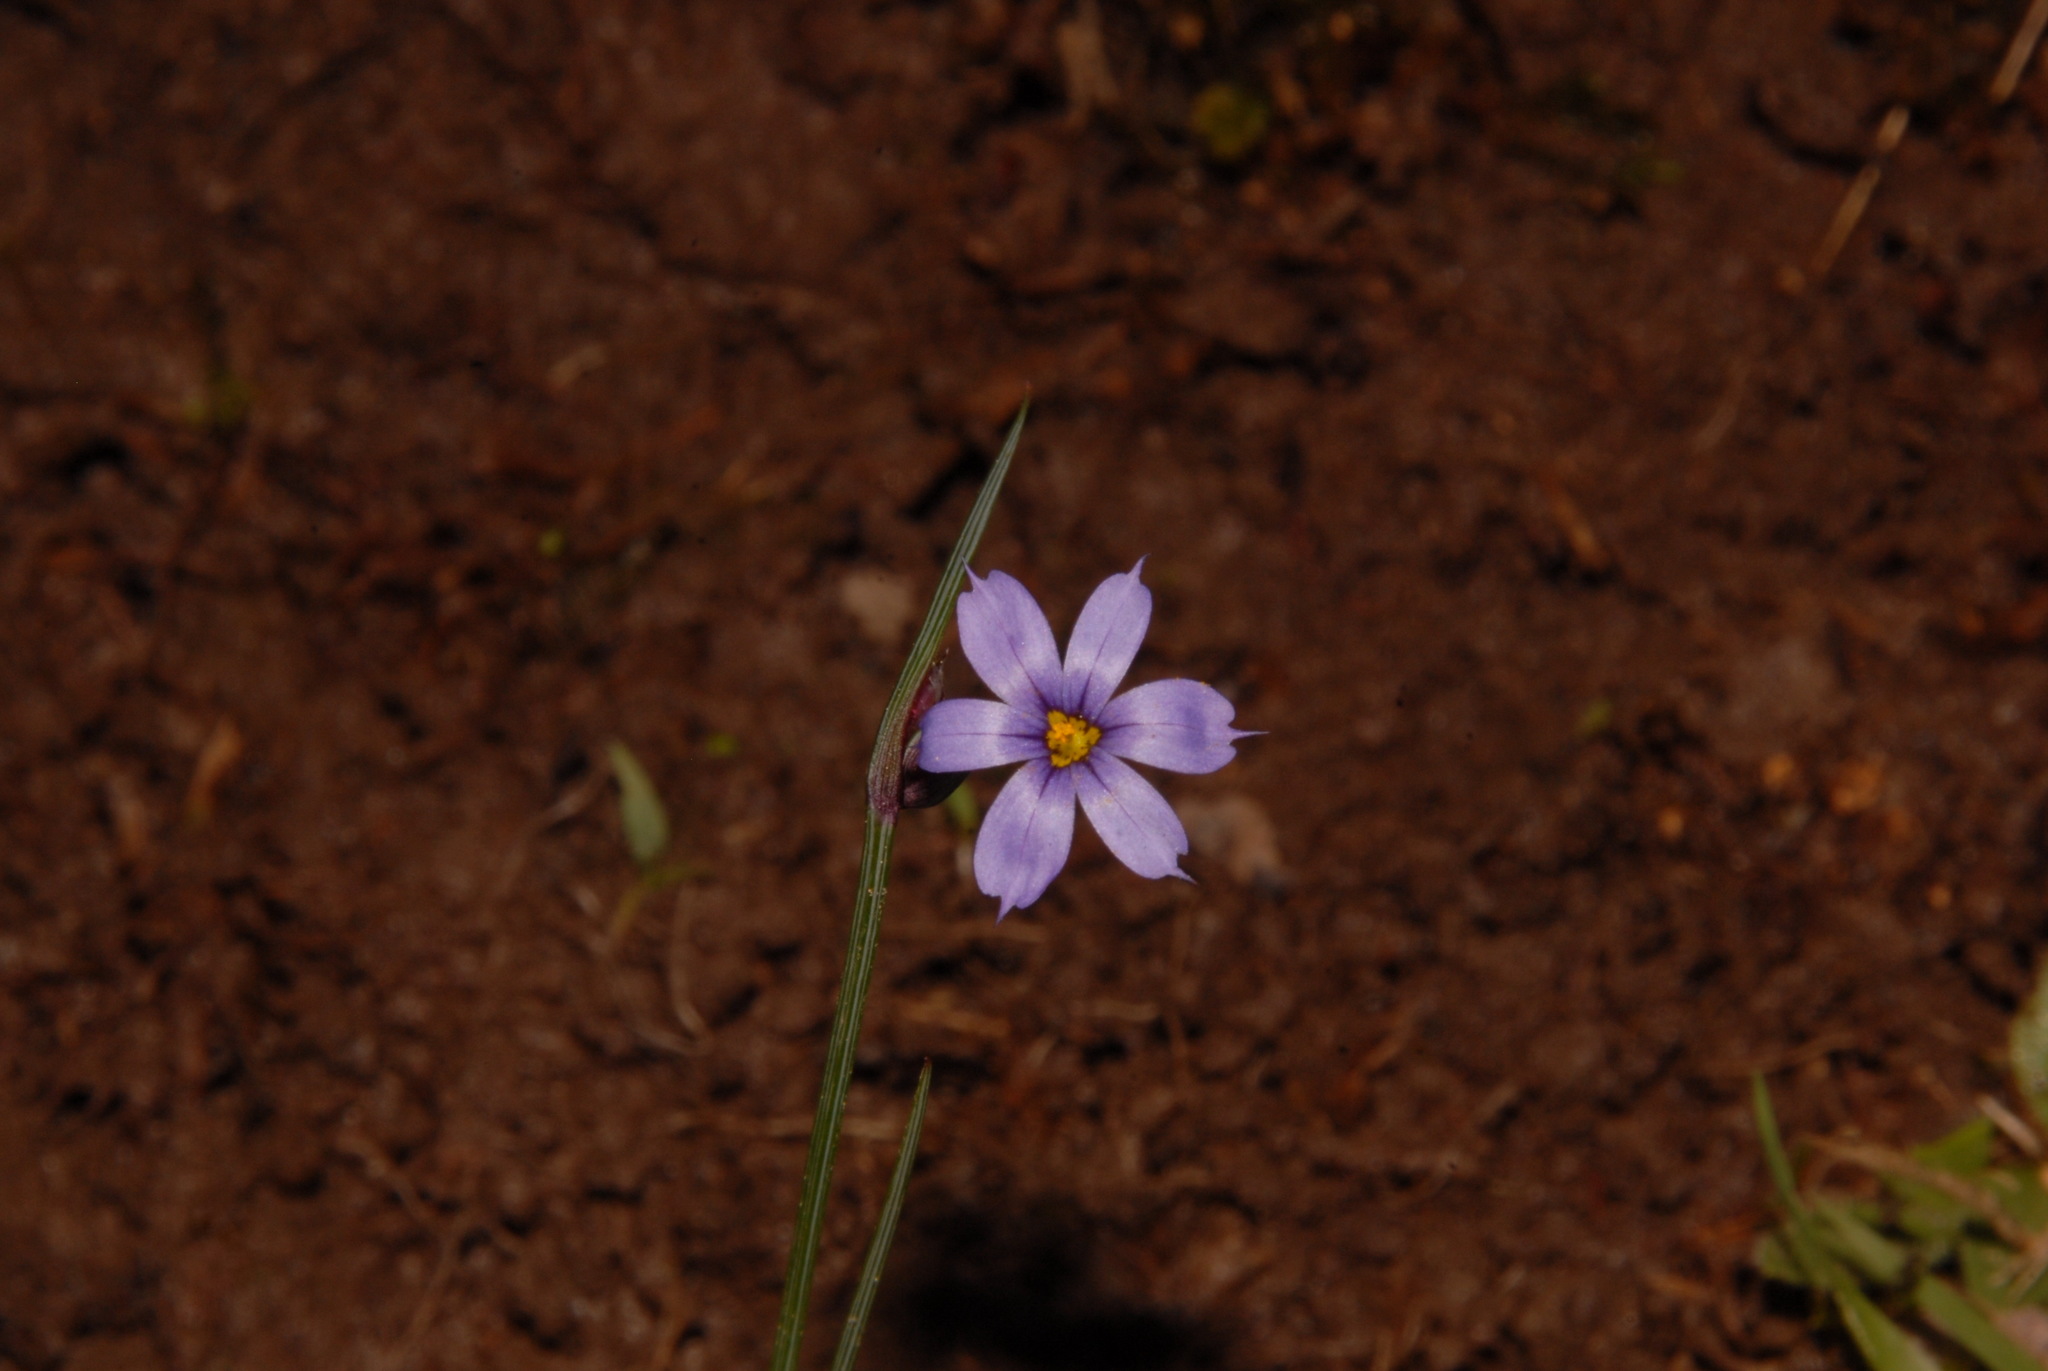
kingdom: Plantae
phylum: Tracheophyta
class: Liliopsida
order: Asparagales
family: Iridaceae
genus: Sisyrinchium
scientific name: Sisyrinchium calciphilum
